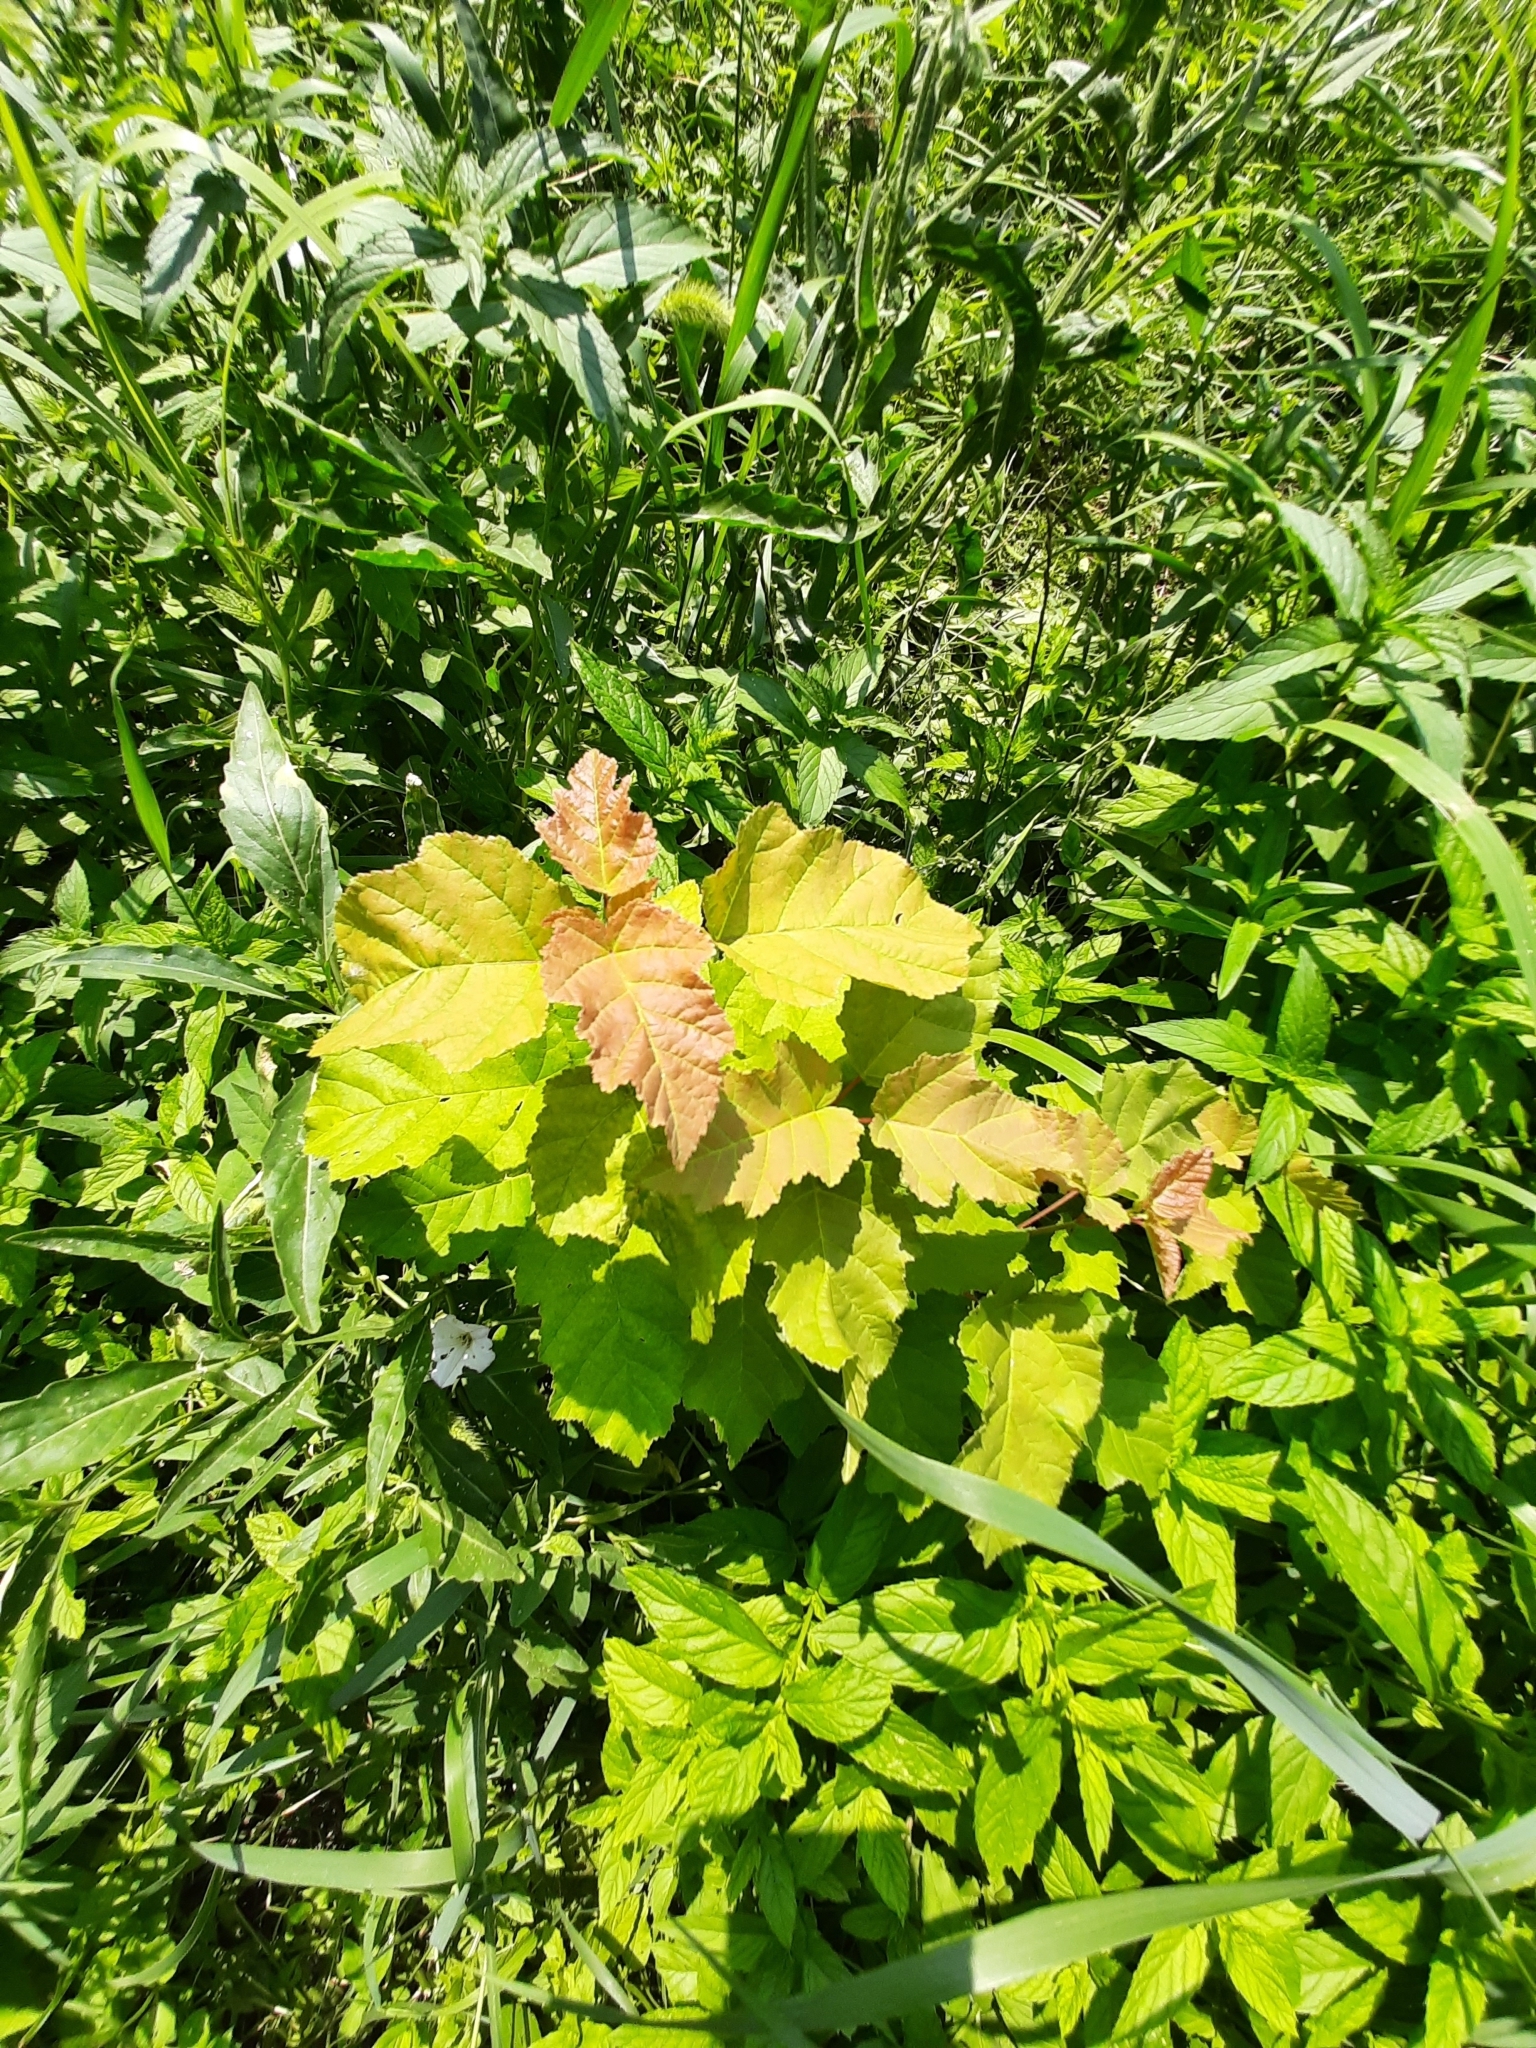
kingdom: Plantae
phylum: Tracheophyta
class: Magnoliopsida
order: Sapindales
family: Sapindaceae
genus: Acer
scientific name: Acer tataricum
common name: Tartar maple
